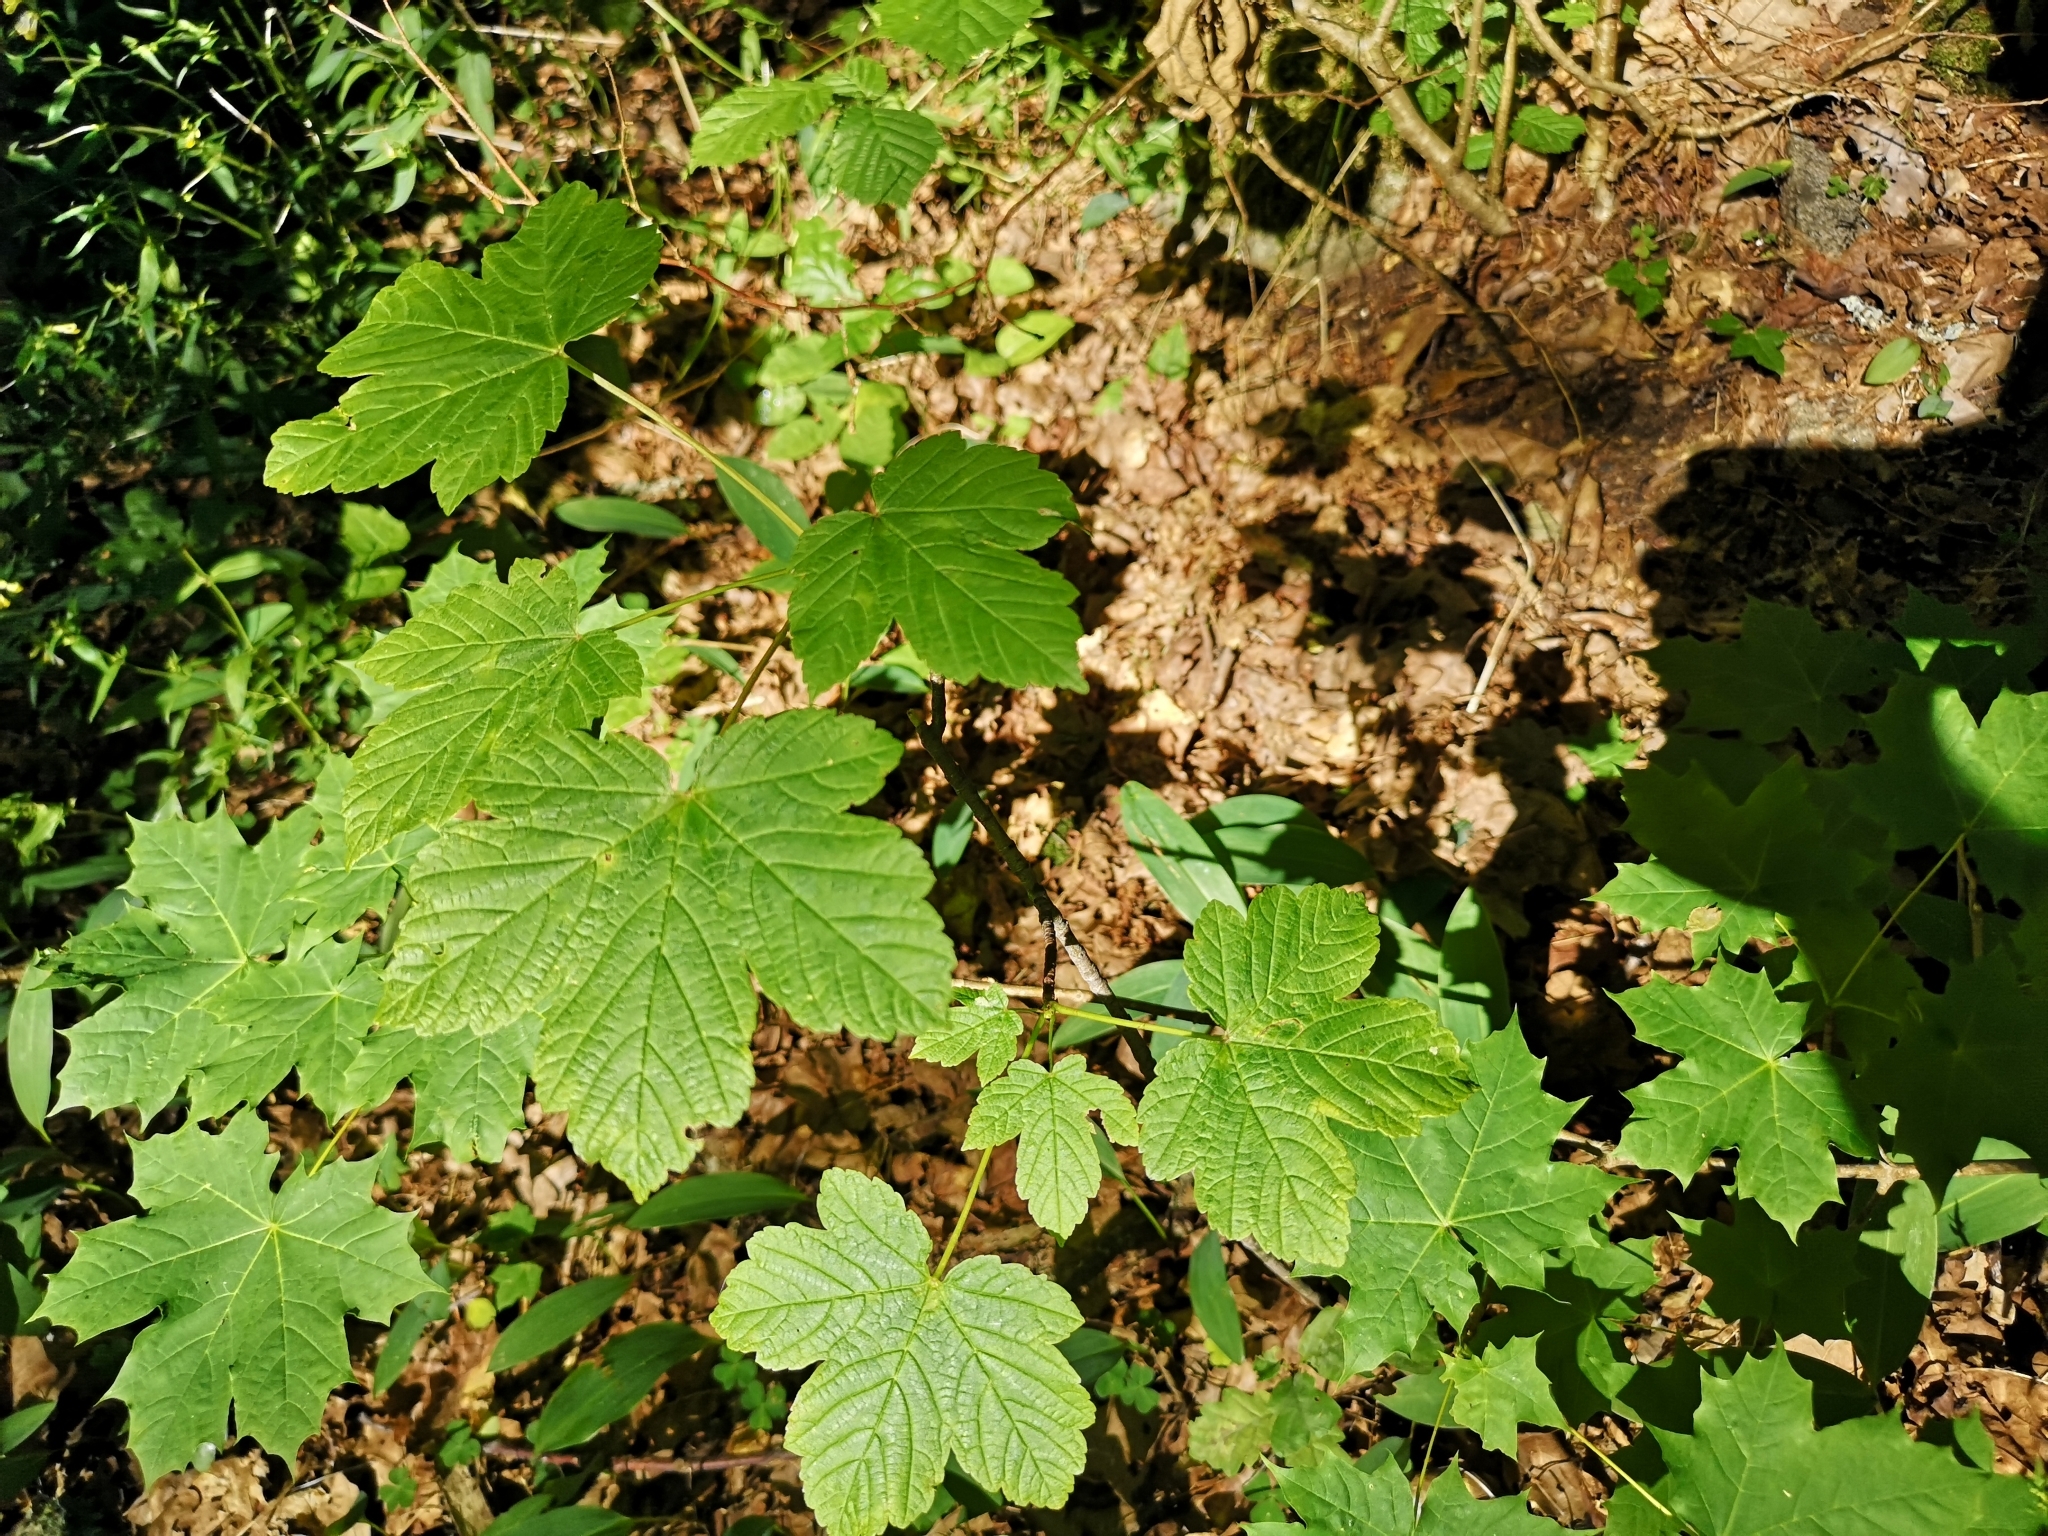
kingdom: Plantae
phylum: Tracheophyta
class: Magnoliopsida
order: Sapindales
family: Sapindaceae
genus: Acer
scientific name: Acer pseudoplatanus
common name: Sycamore
